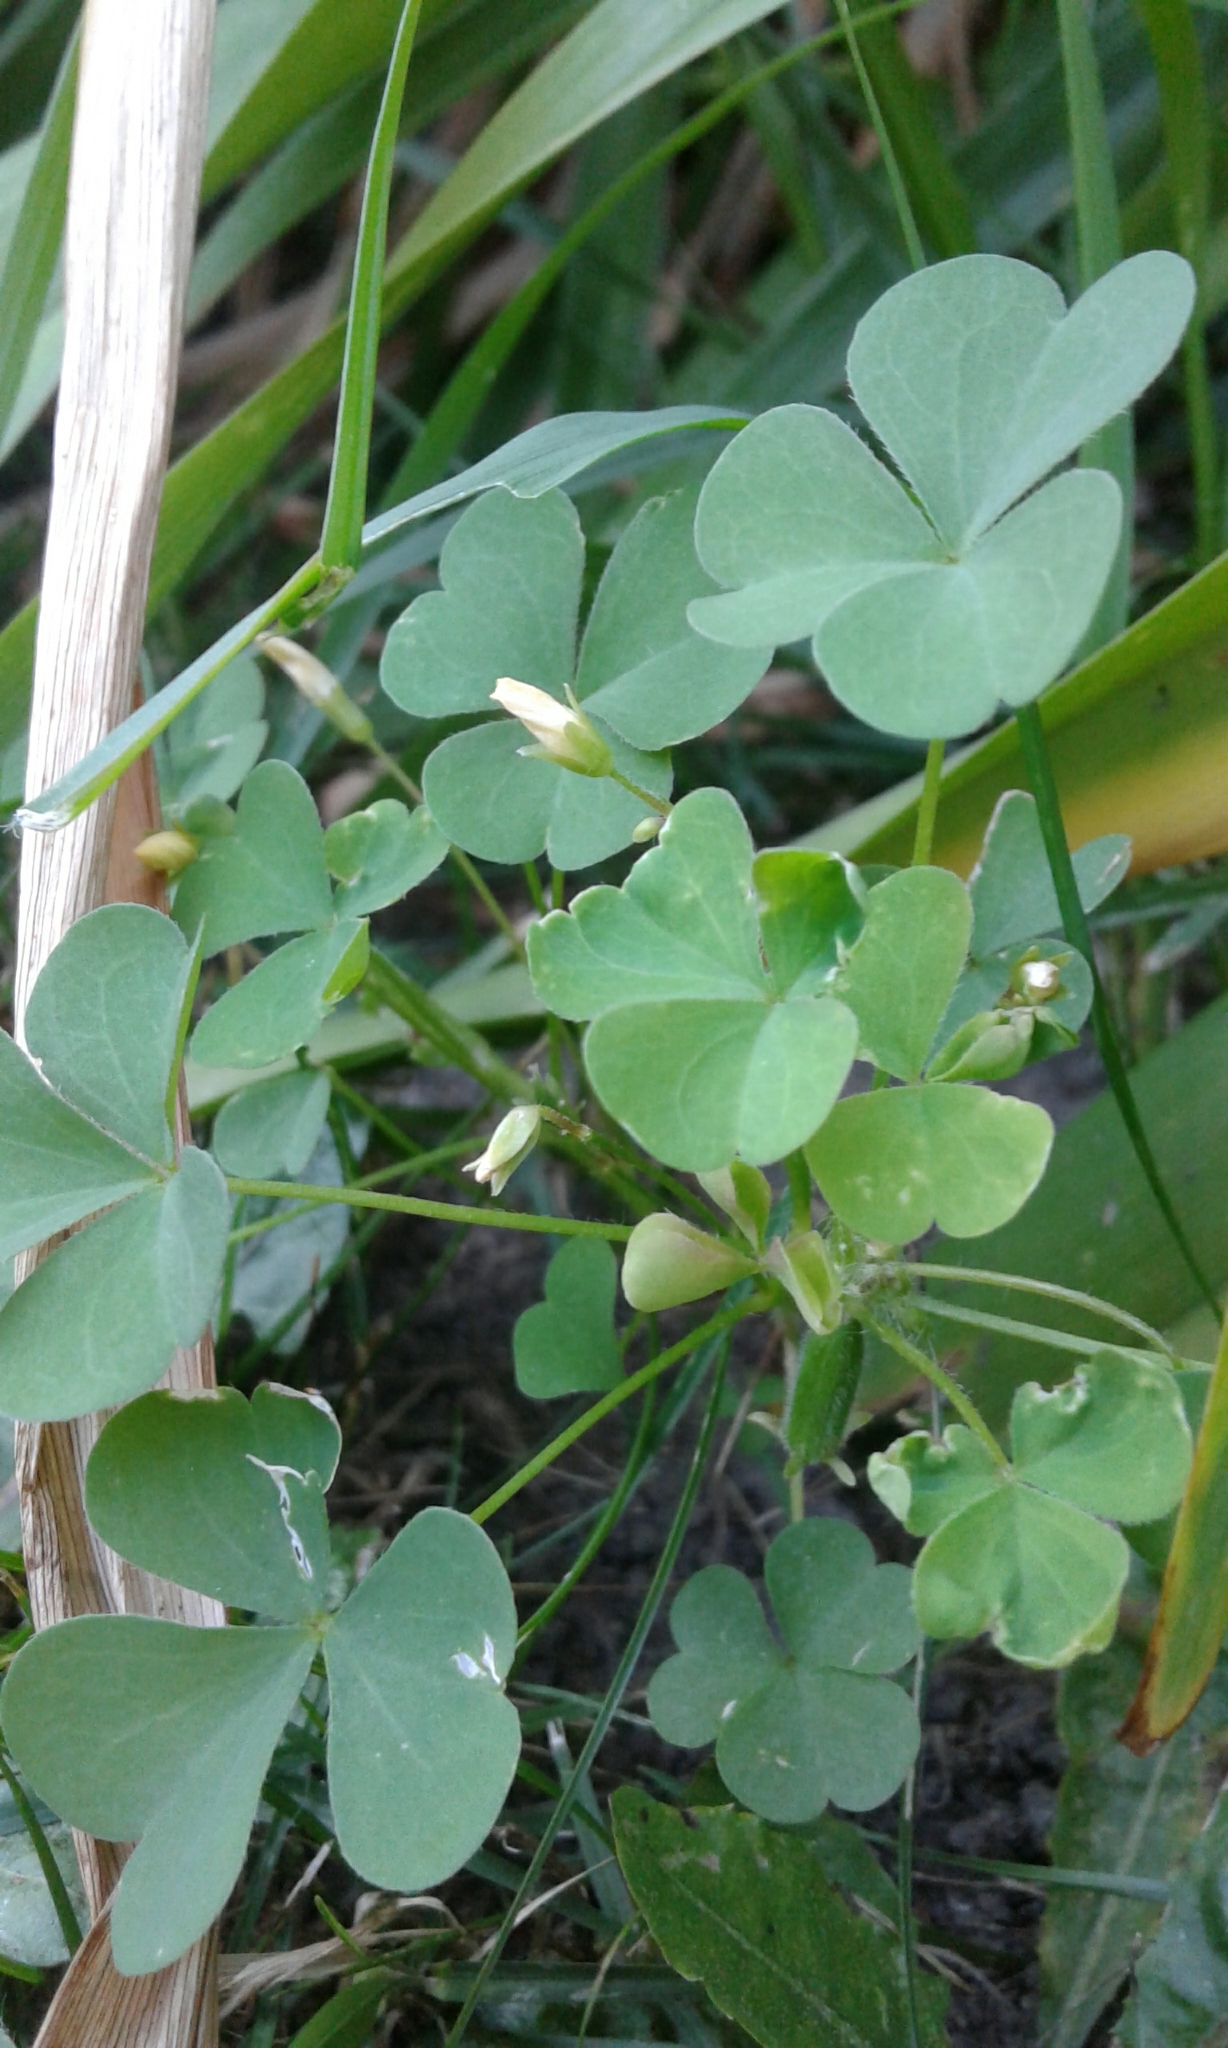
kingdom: Plantae
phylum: Tracheophyta
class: Magnoliopsida
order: Oxalidales
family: Oxalidaceae
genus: Oxalis
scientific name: Oxalis stricta
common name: Upright yellow-sorrel
